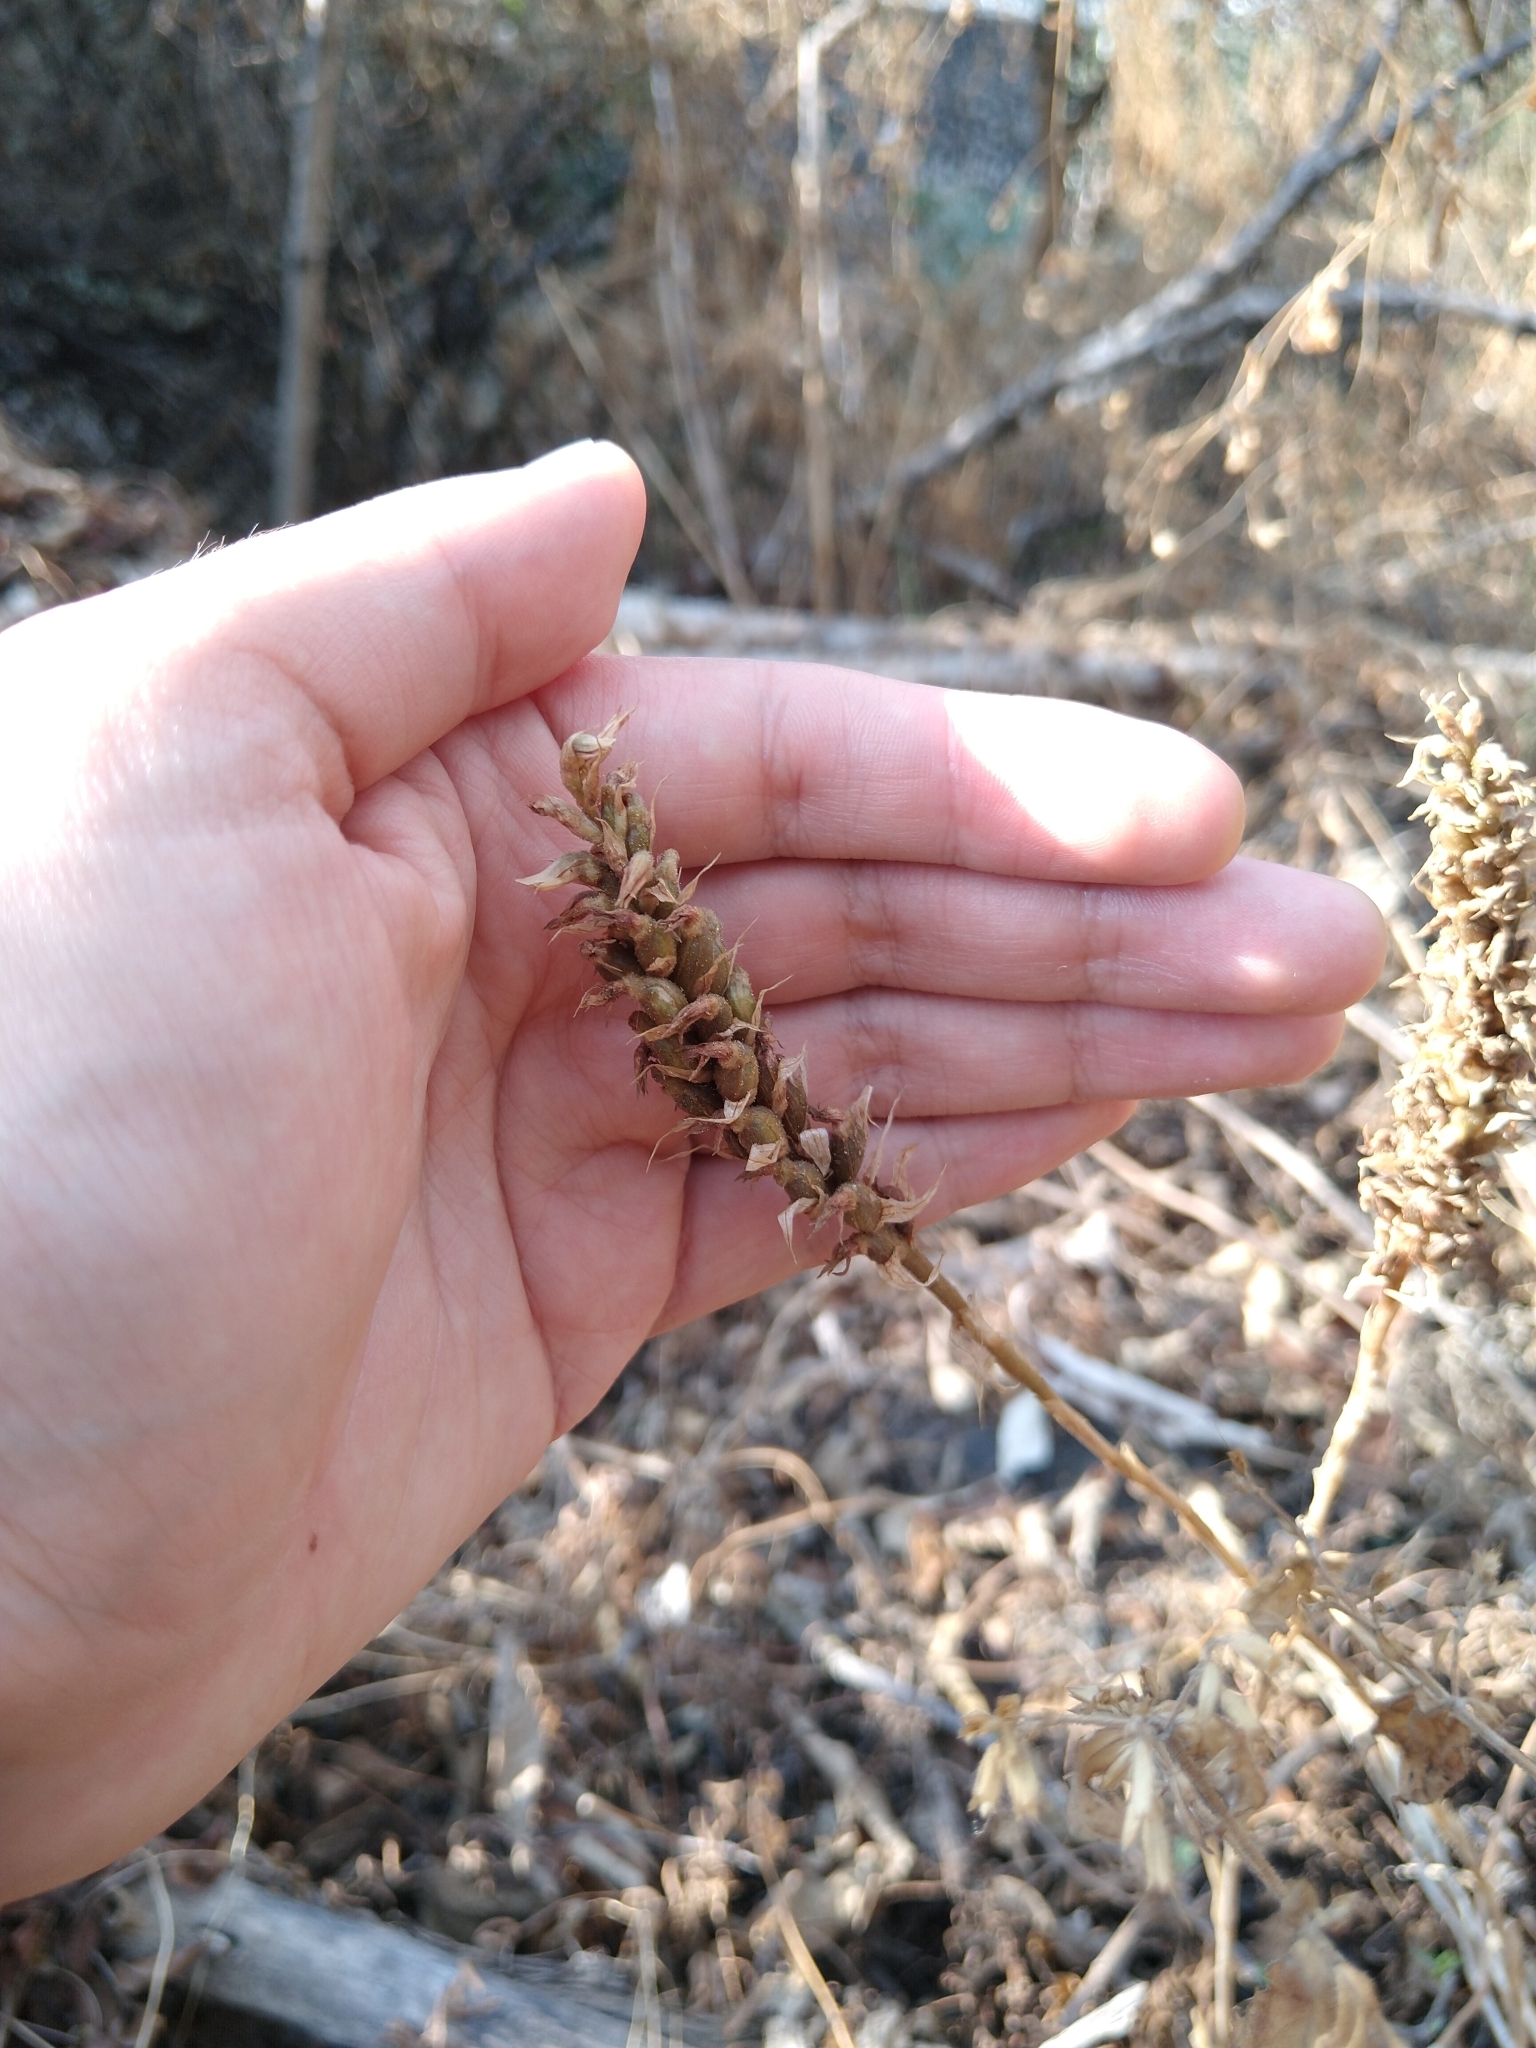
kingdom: Plantae
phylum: Tracheophyta
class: Liliopsida
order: Asparagales
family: Orchidaceae
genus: Aulosepalum
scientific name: Aulosepalum pyramidale
